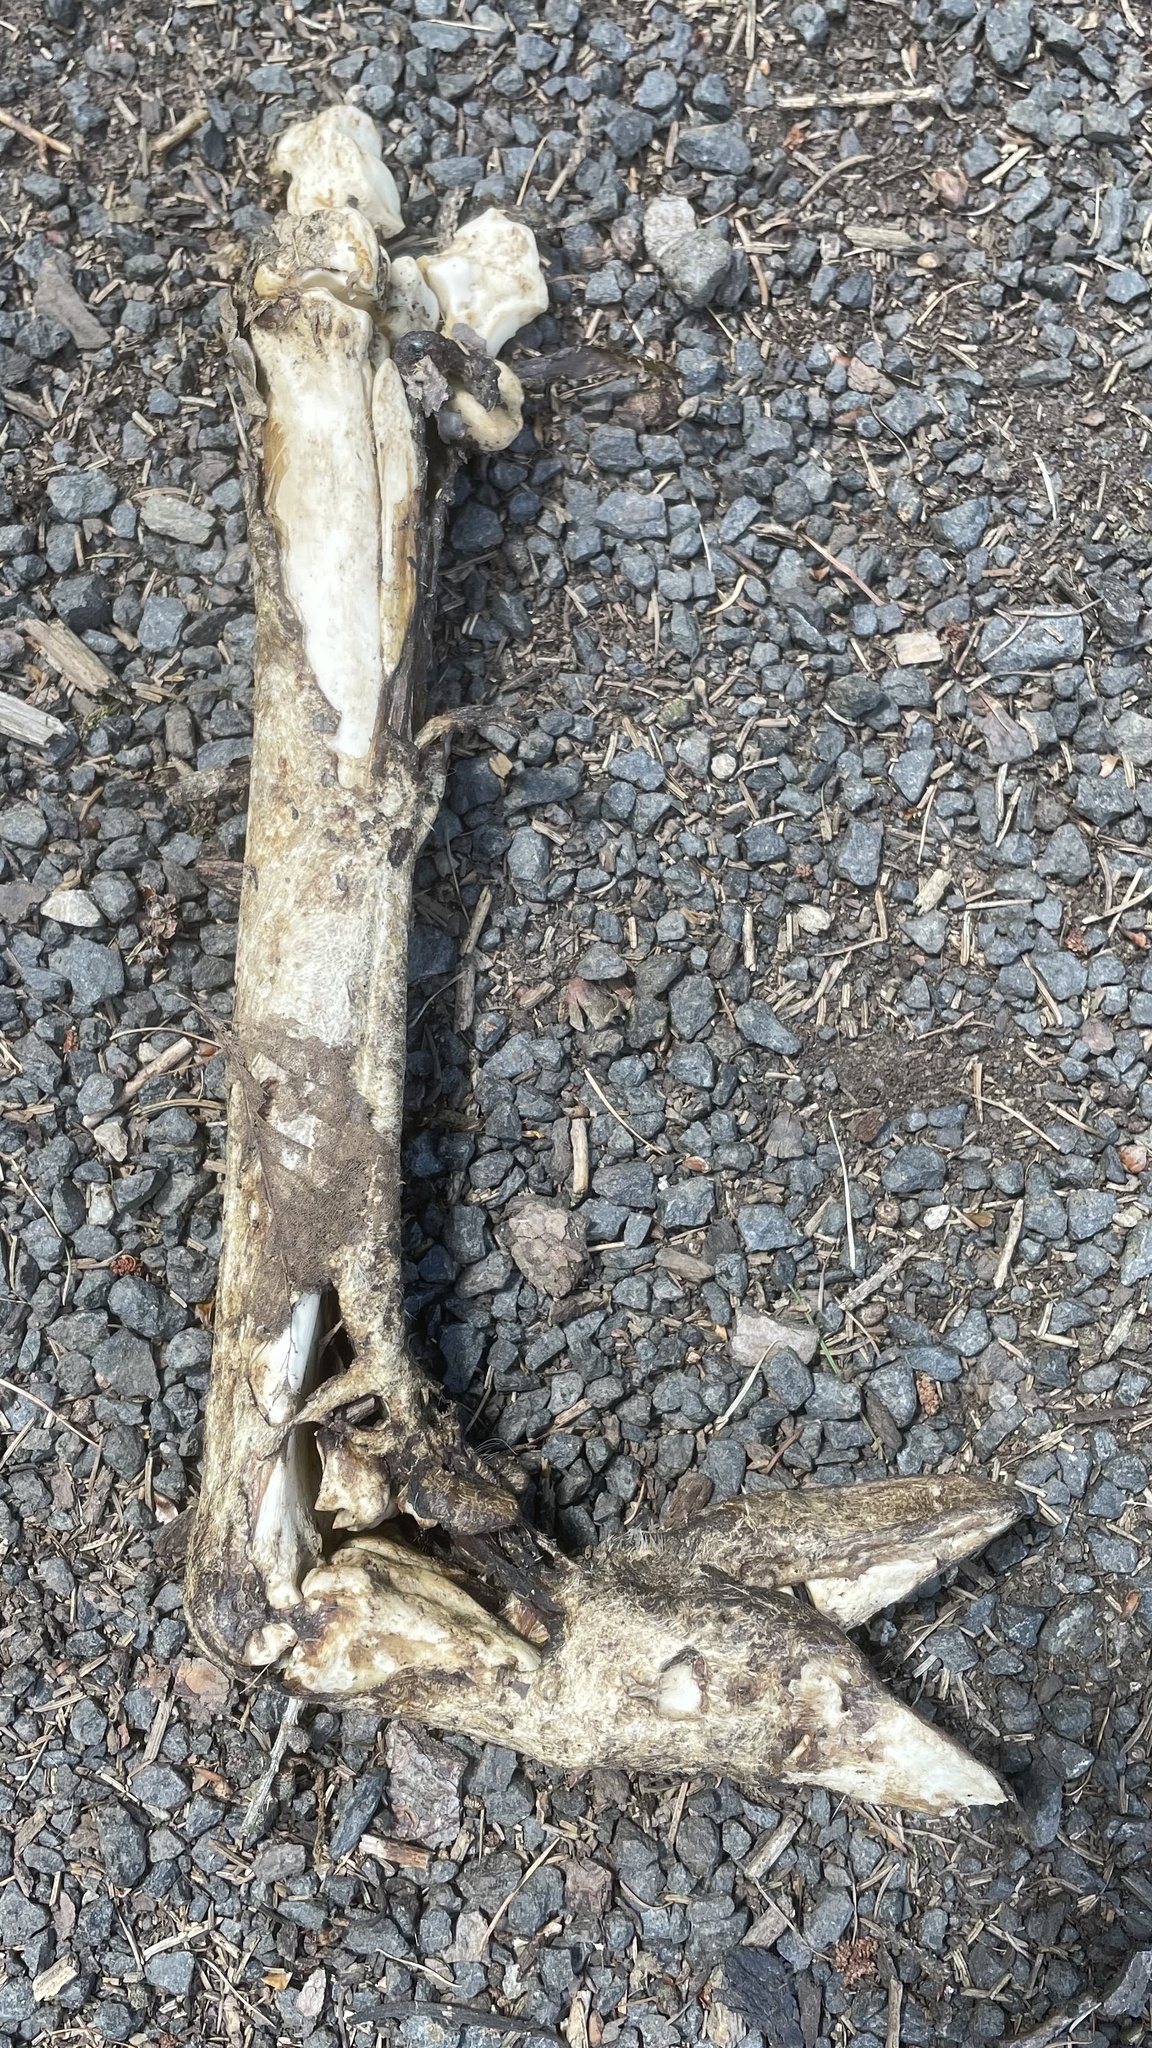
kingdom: Animalia
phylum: Chordata
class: Mammalia
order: Artiodactyla
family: Suidae
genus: Sus
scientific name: Sus scrofa
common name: Wild boar
